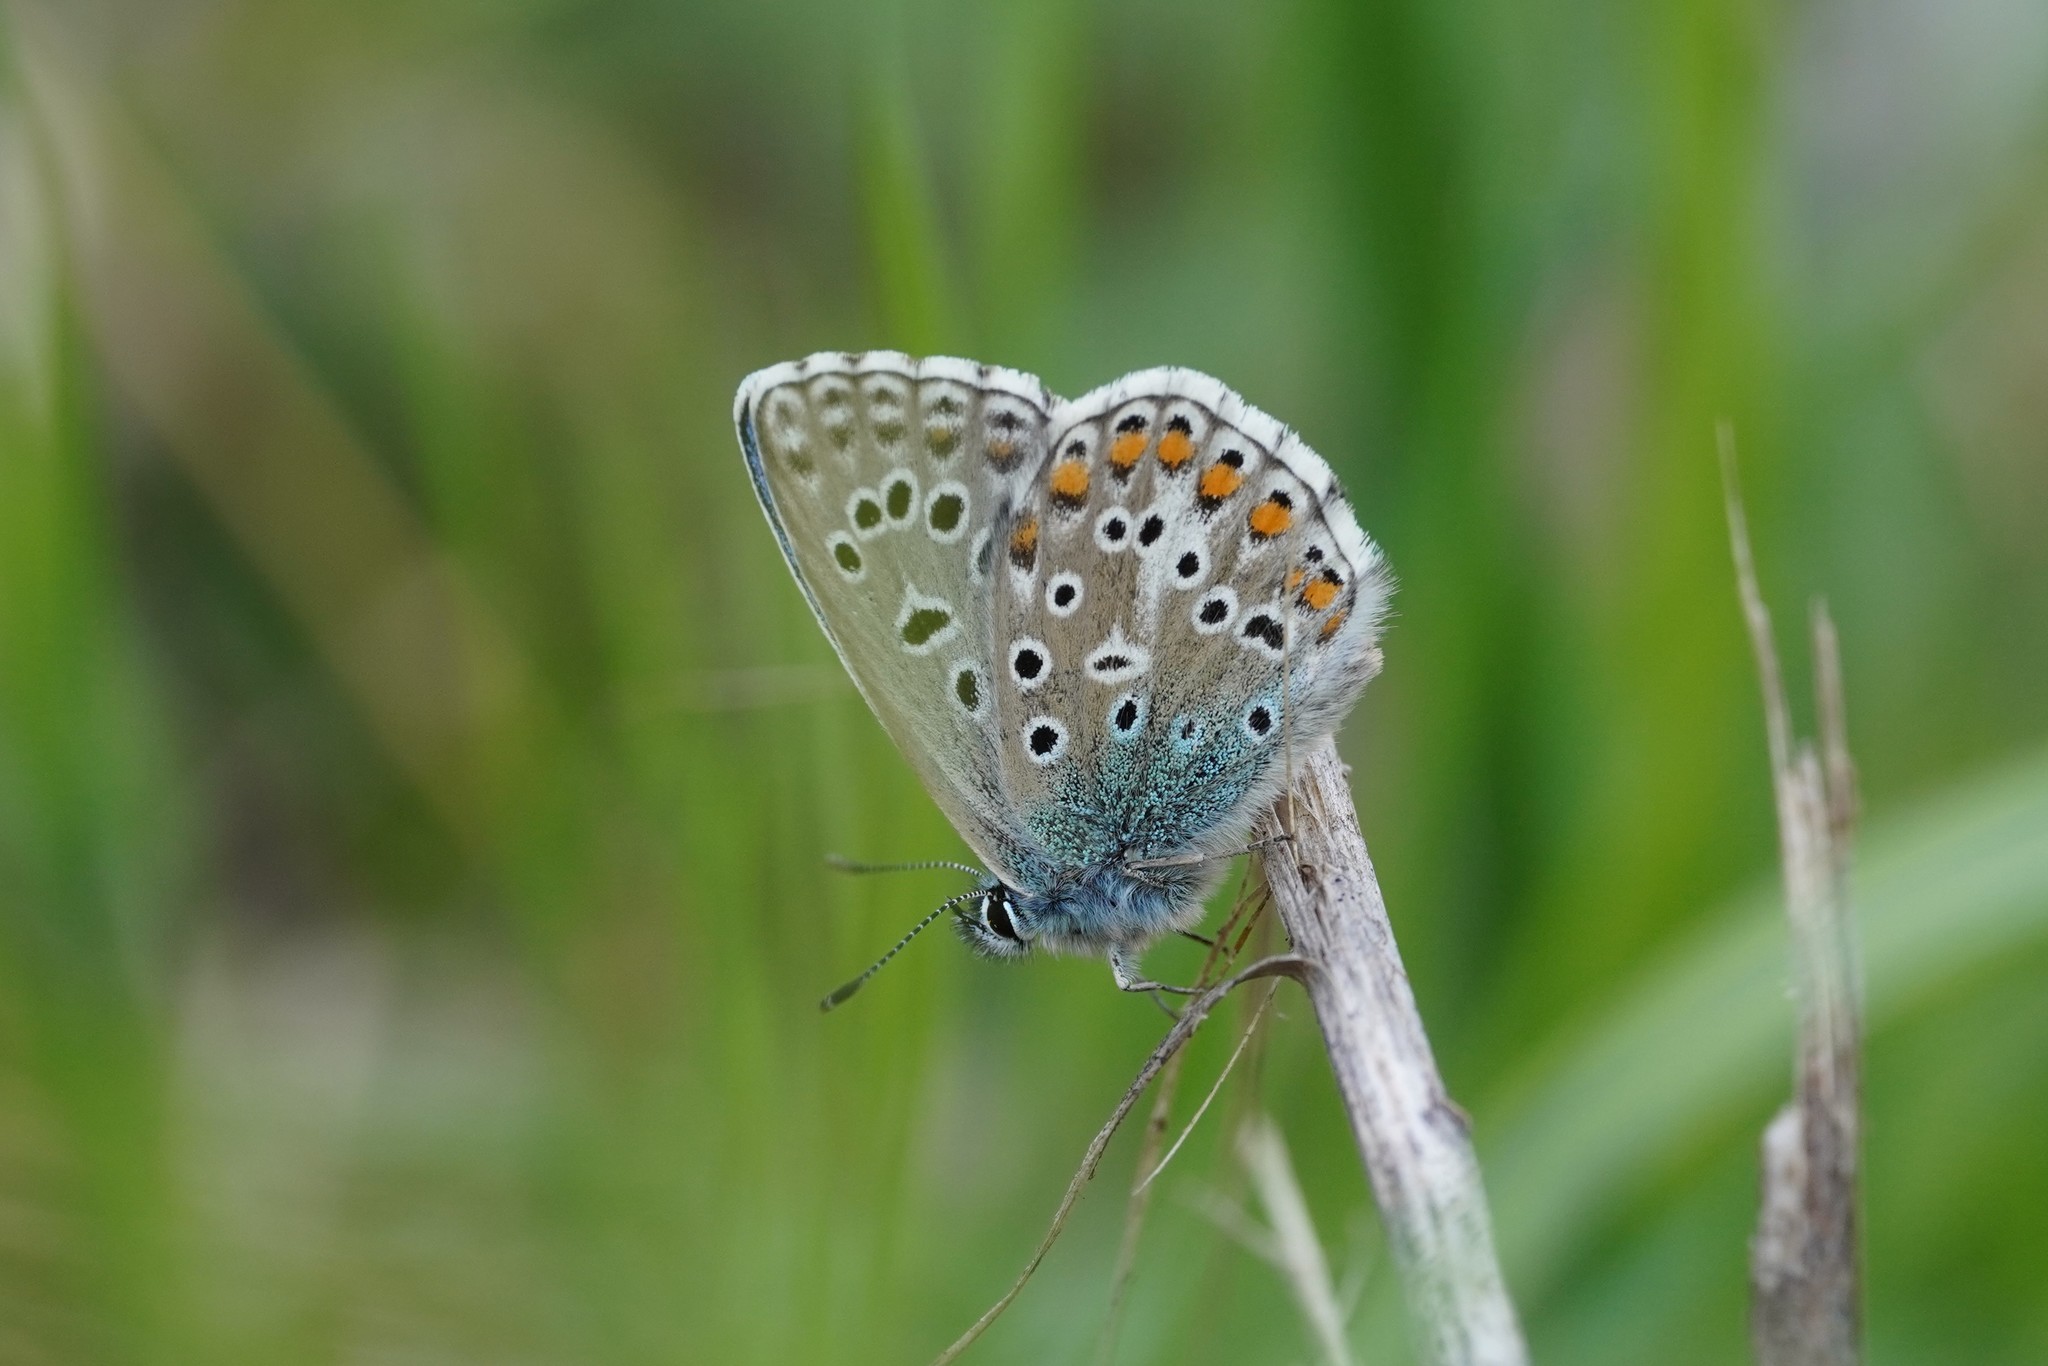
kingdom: Animalia
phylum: Arthropoda
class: Insecta
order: Lepidoptera
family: Lycaenidae
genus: Lysandra
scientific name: Lysandra bellargus
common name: Adonis blue
